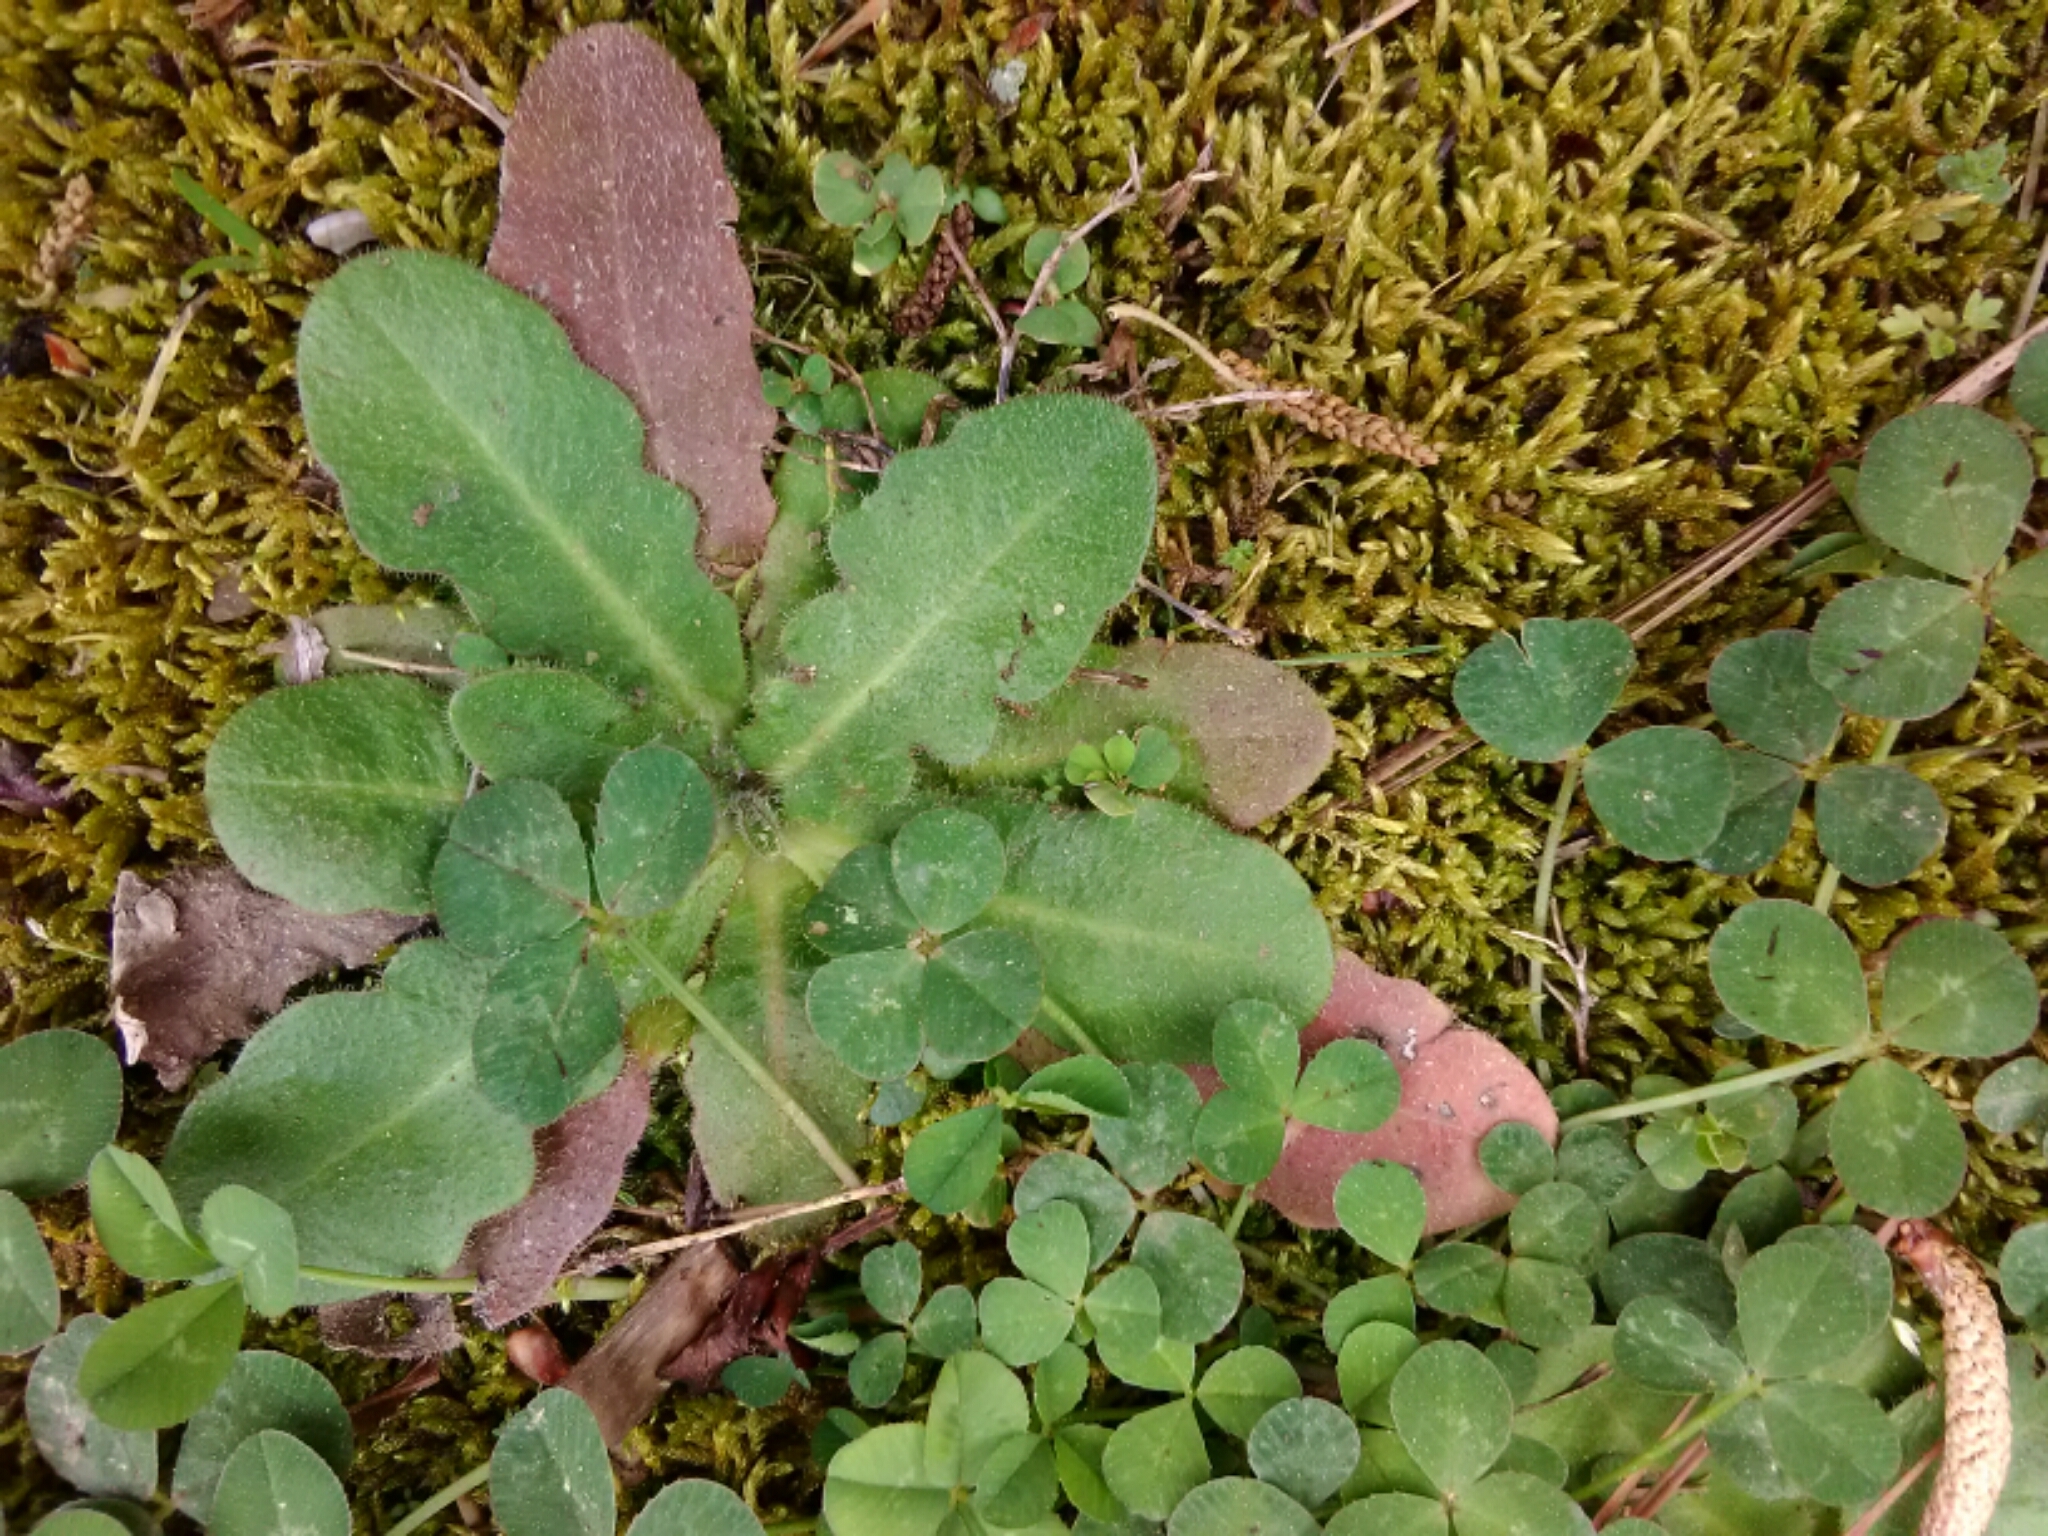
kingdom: Plantae
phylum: Tracheophyta
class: Magnoliopsida
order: Asterales
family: Asteraceae
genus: Hypochaeris
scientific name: Hypochaeris radicata
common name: Flatweed
